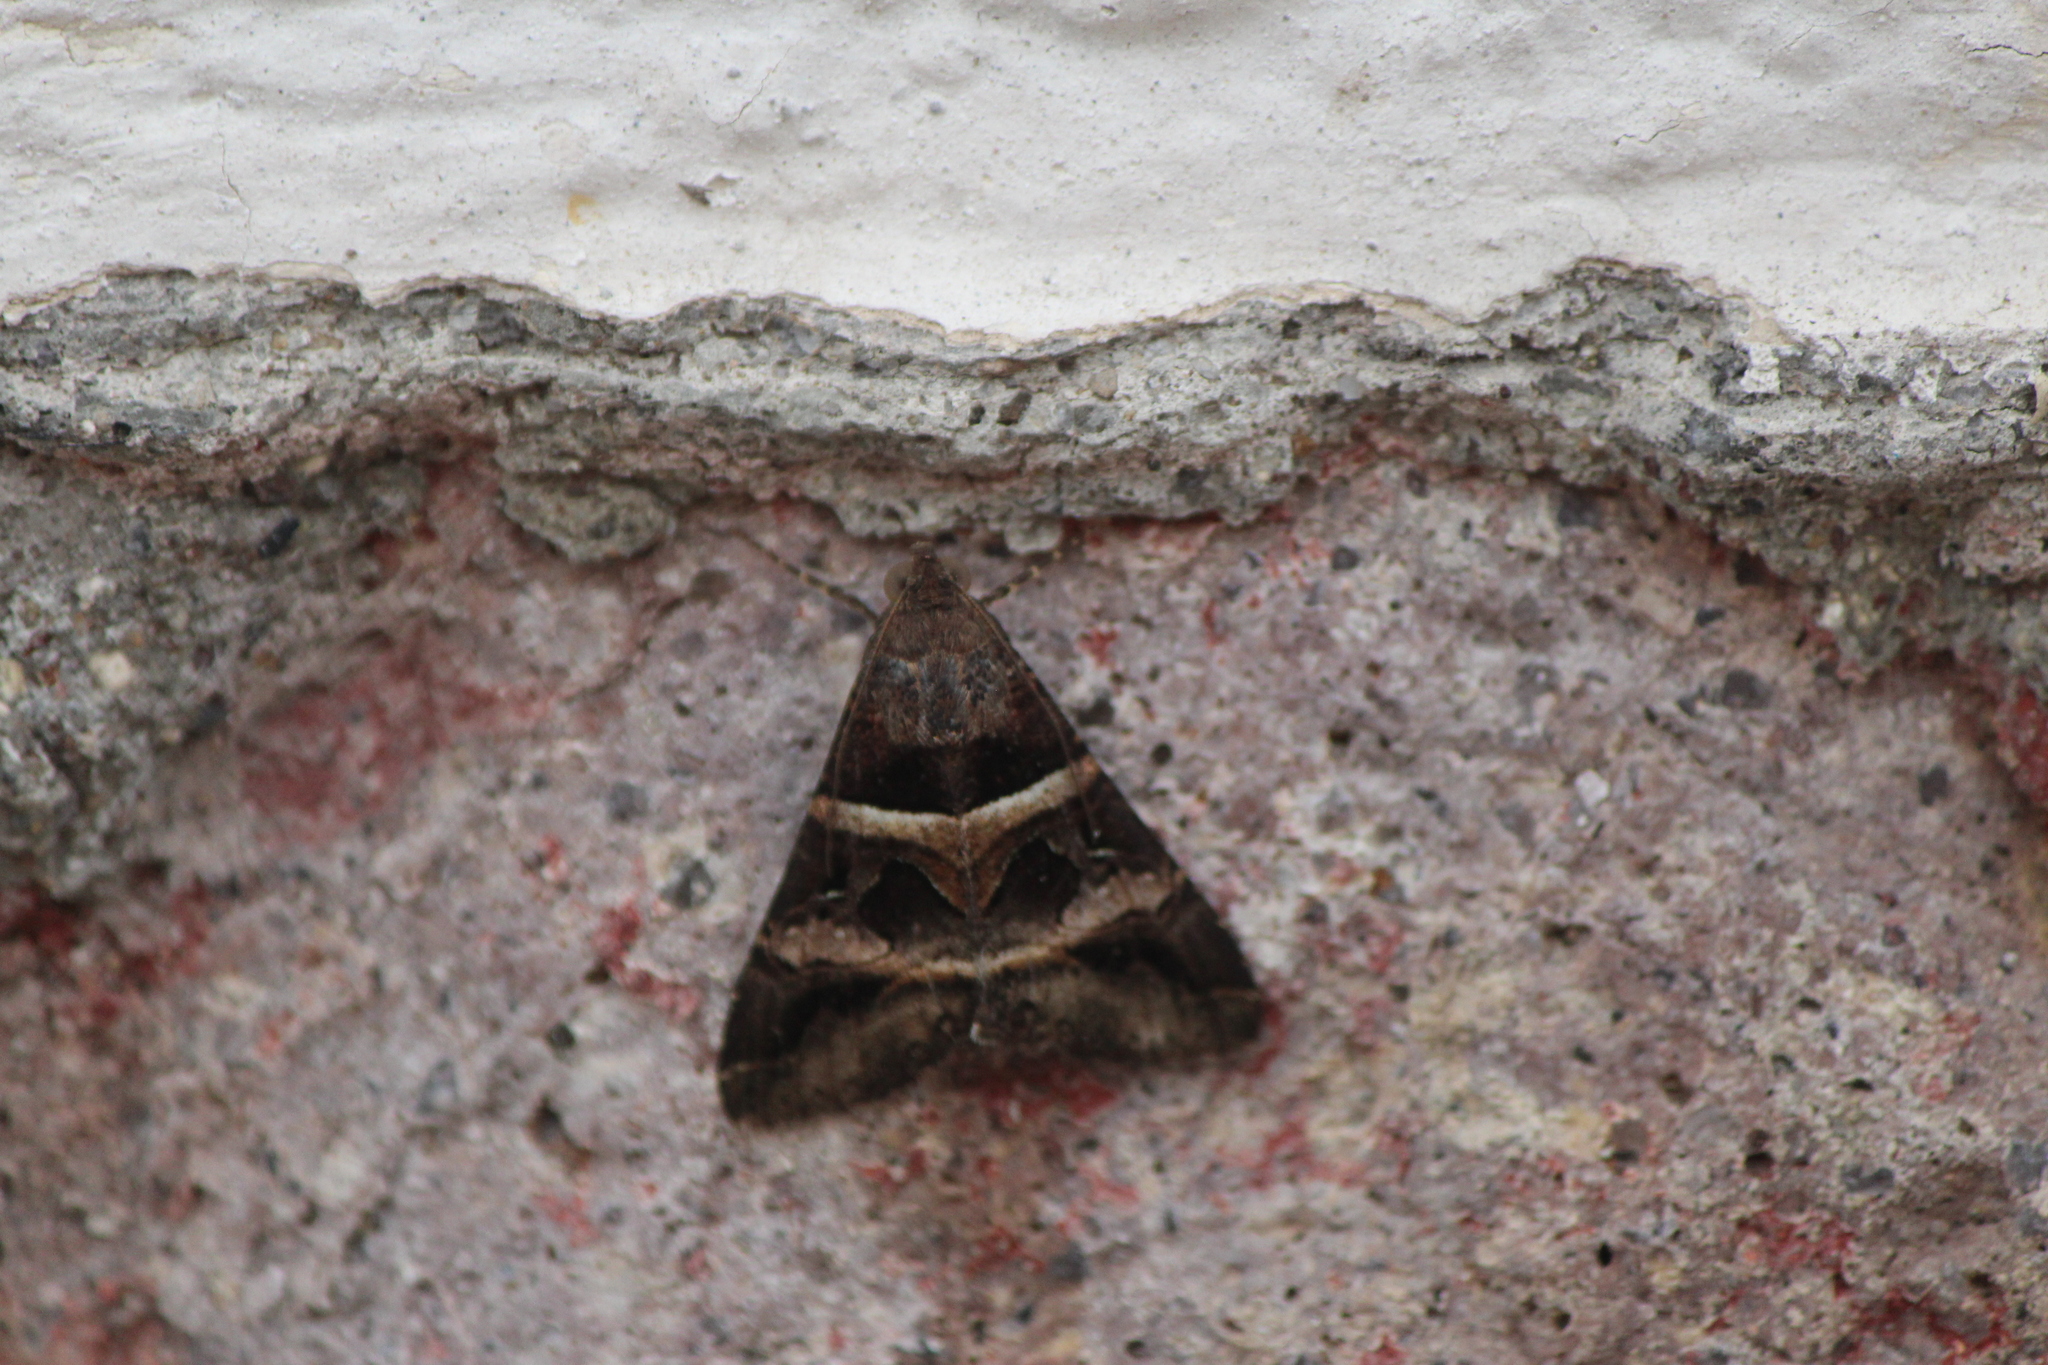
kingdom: Animalia
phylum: Arthropoda
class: Insecta
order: Lepidoptera
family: Erebidae
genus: Melipotis
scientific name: Melipotis perpendicularis
